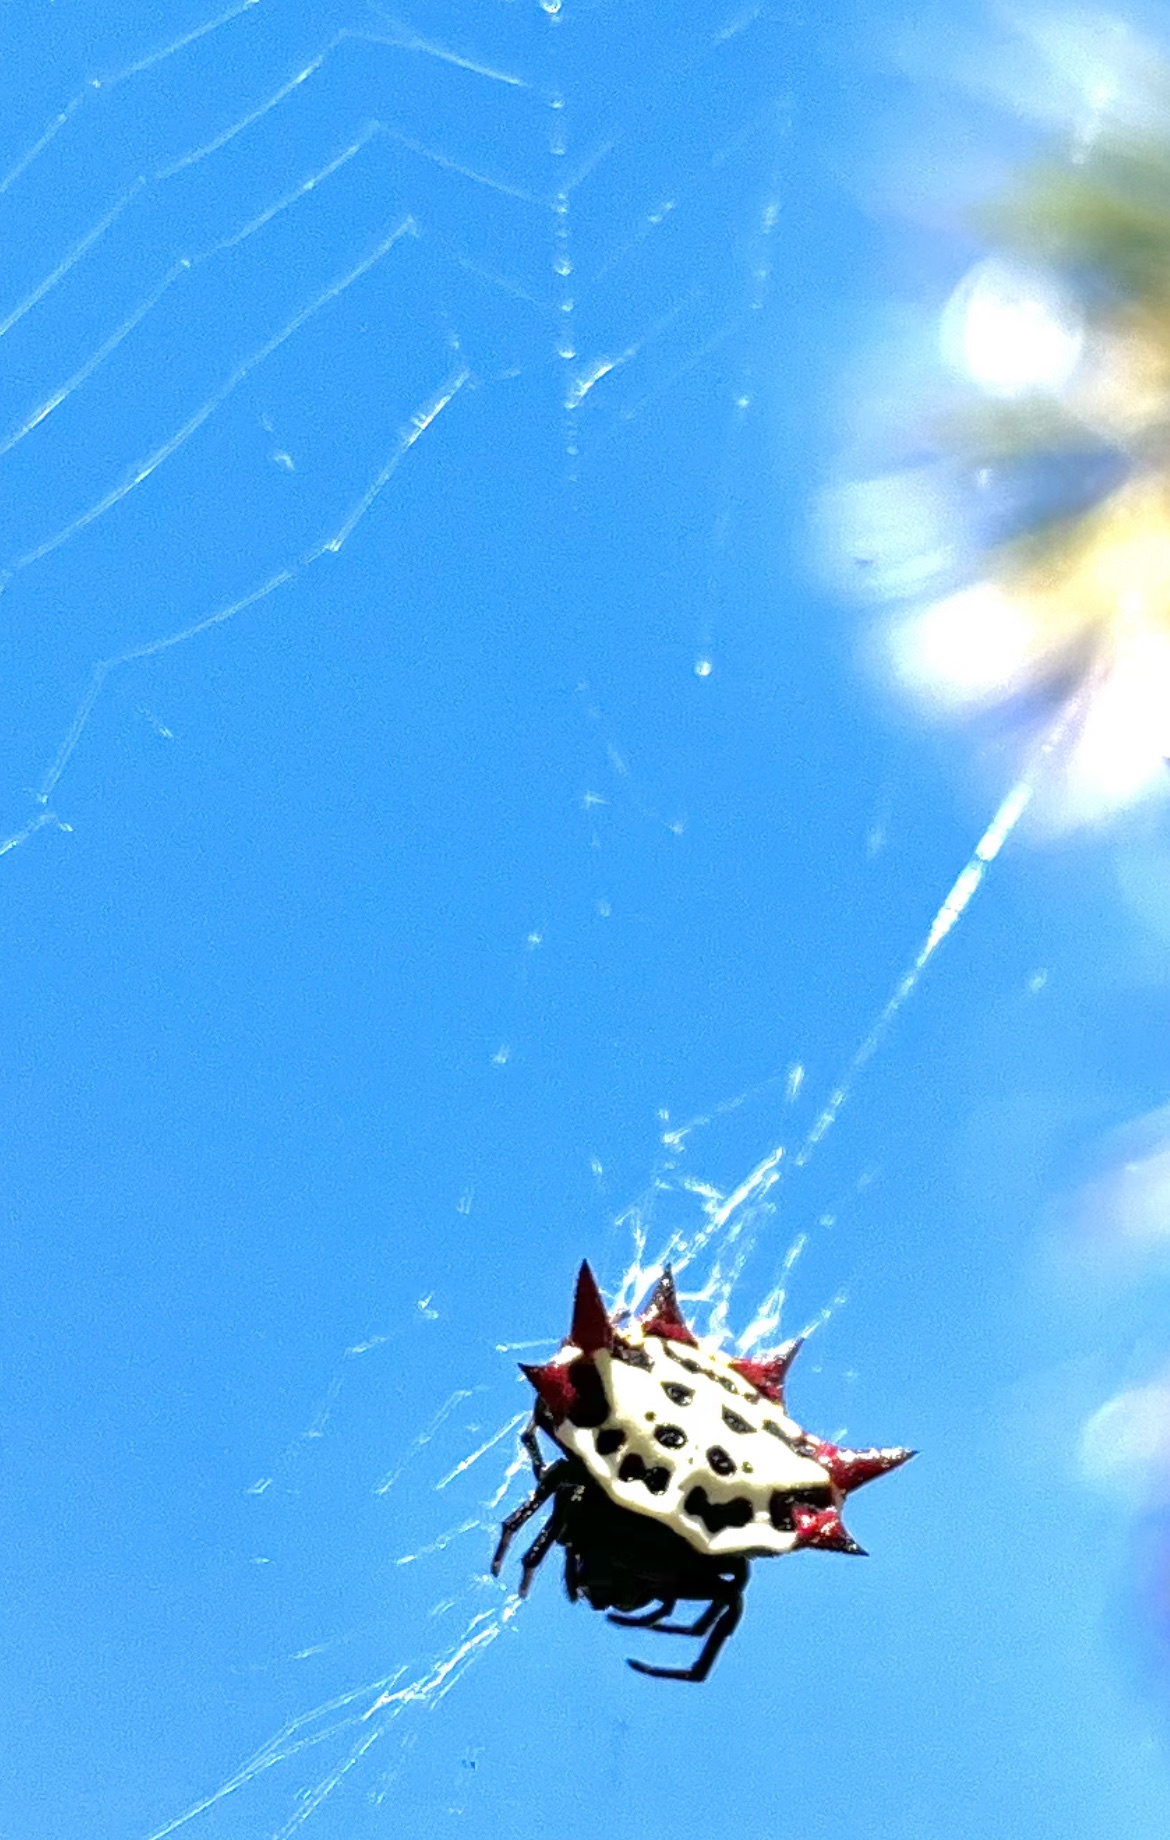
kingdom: Animalia
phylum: Arthropoda
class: Arachnida
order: Araneae
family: Araneidae
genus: Gasteracantha
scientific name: Gasteracantha cancriformis
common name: Orb weavers
